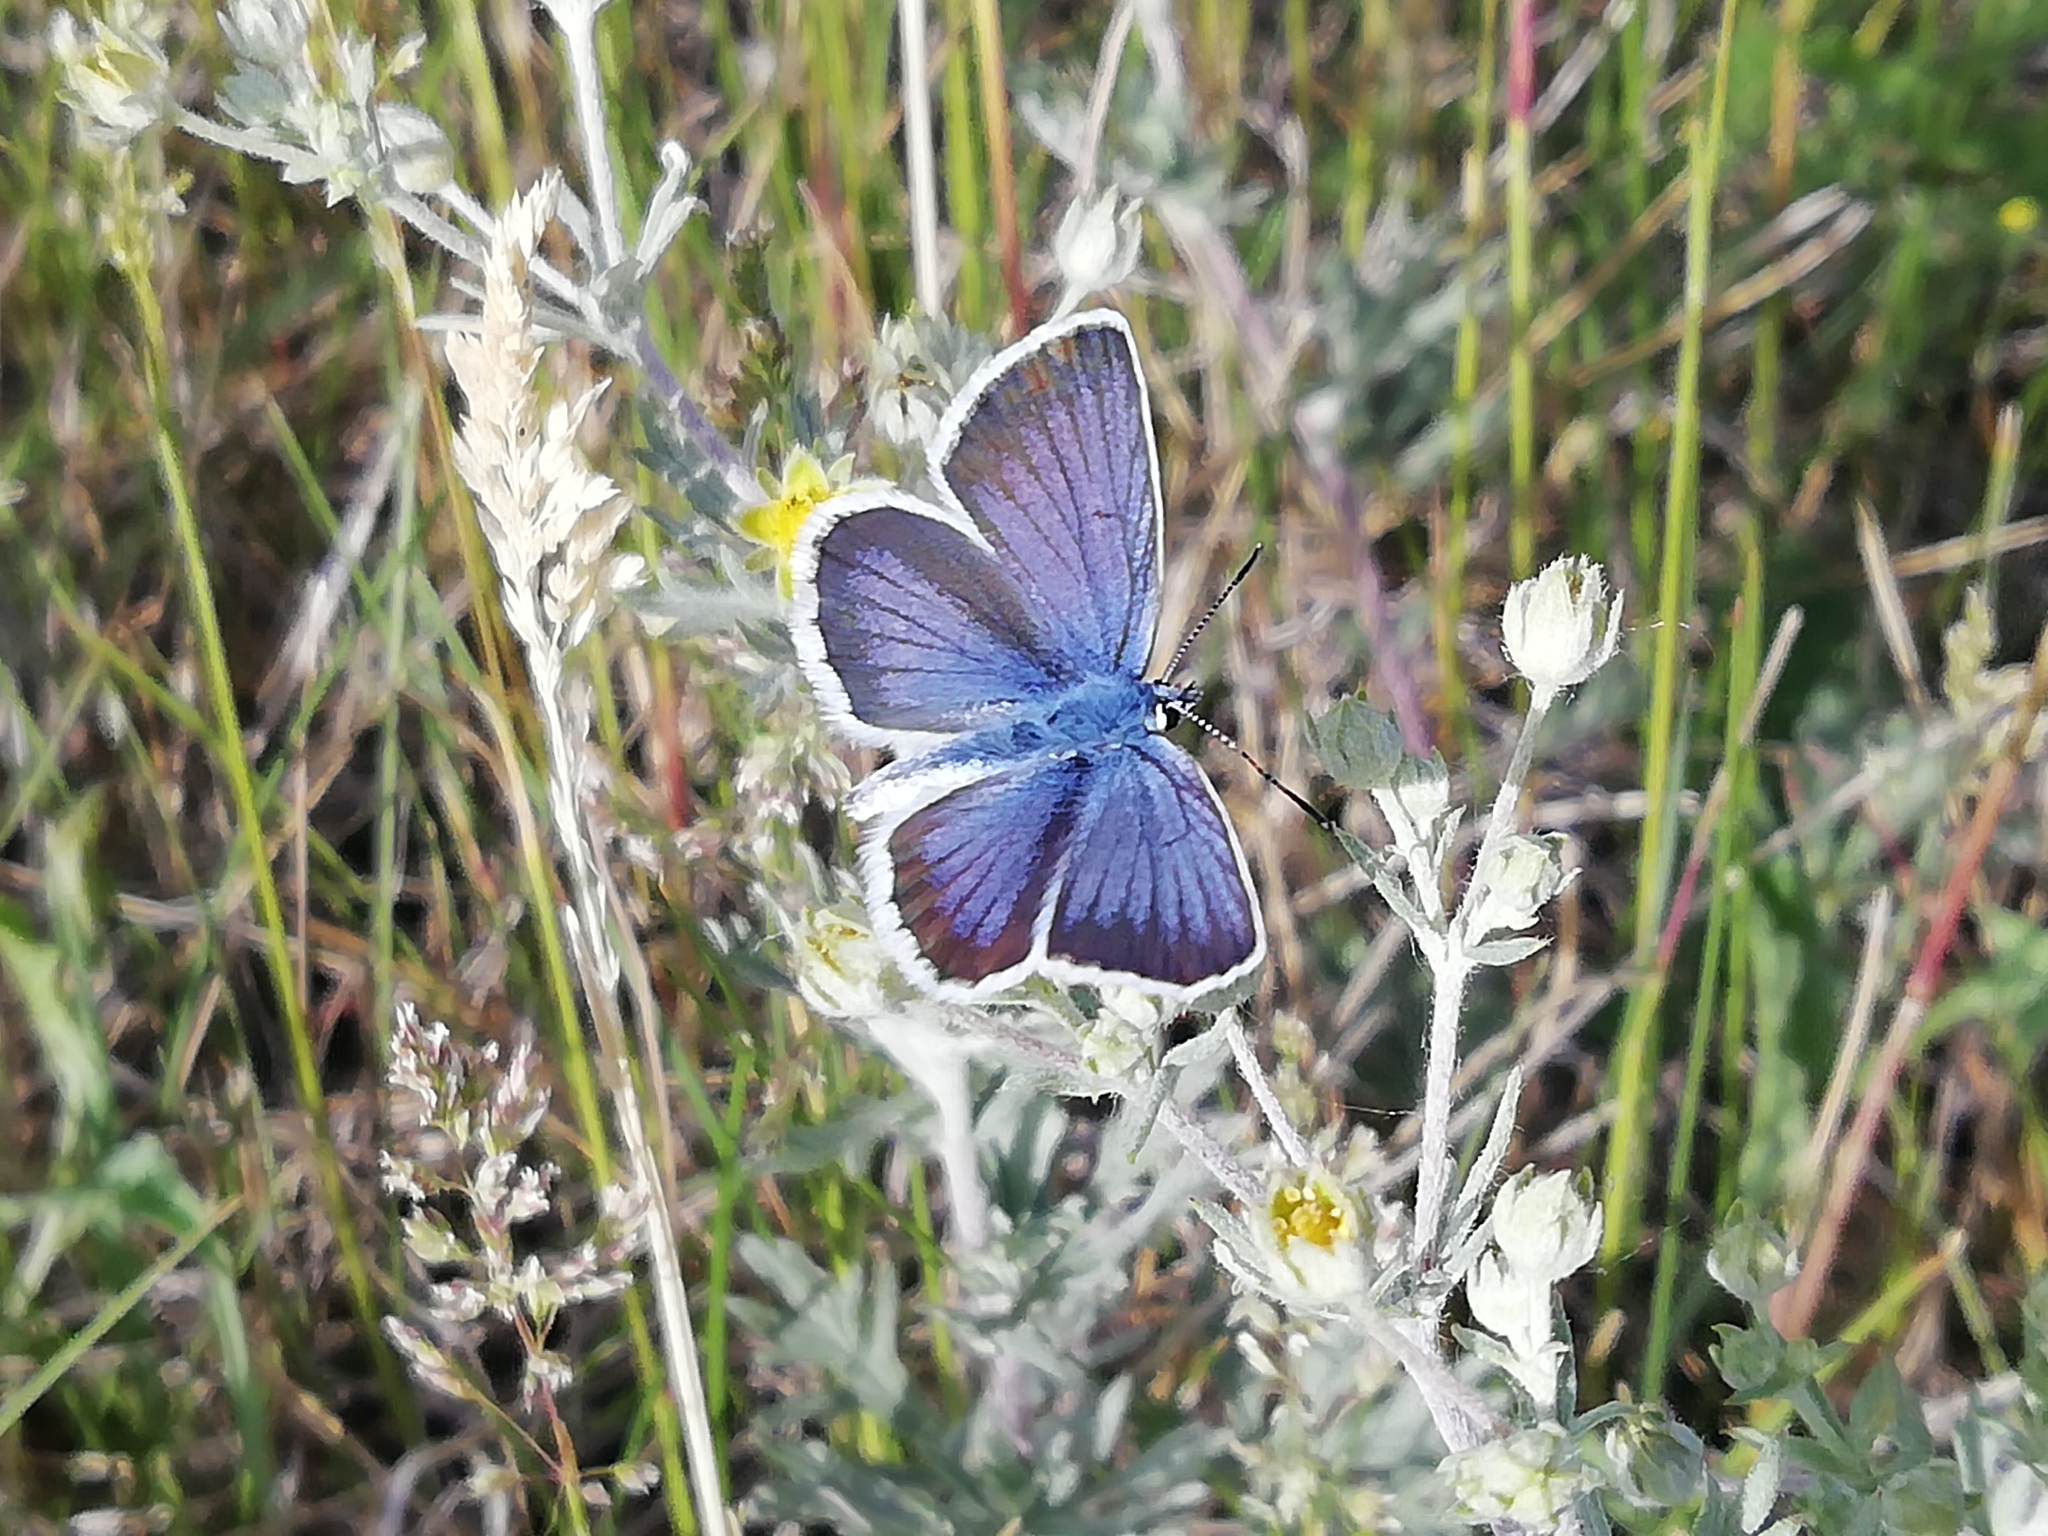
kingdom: Animalia
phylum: Arthropoda
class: Insecta
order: Lepidoptera
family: Lycaenidae
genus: Plebejus
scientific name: Plebejus argus
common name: Silver-studded blue
